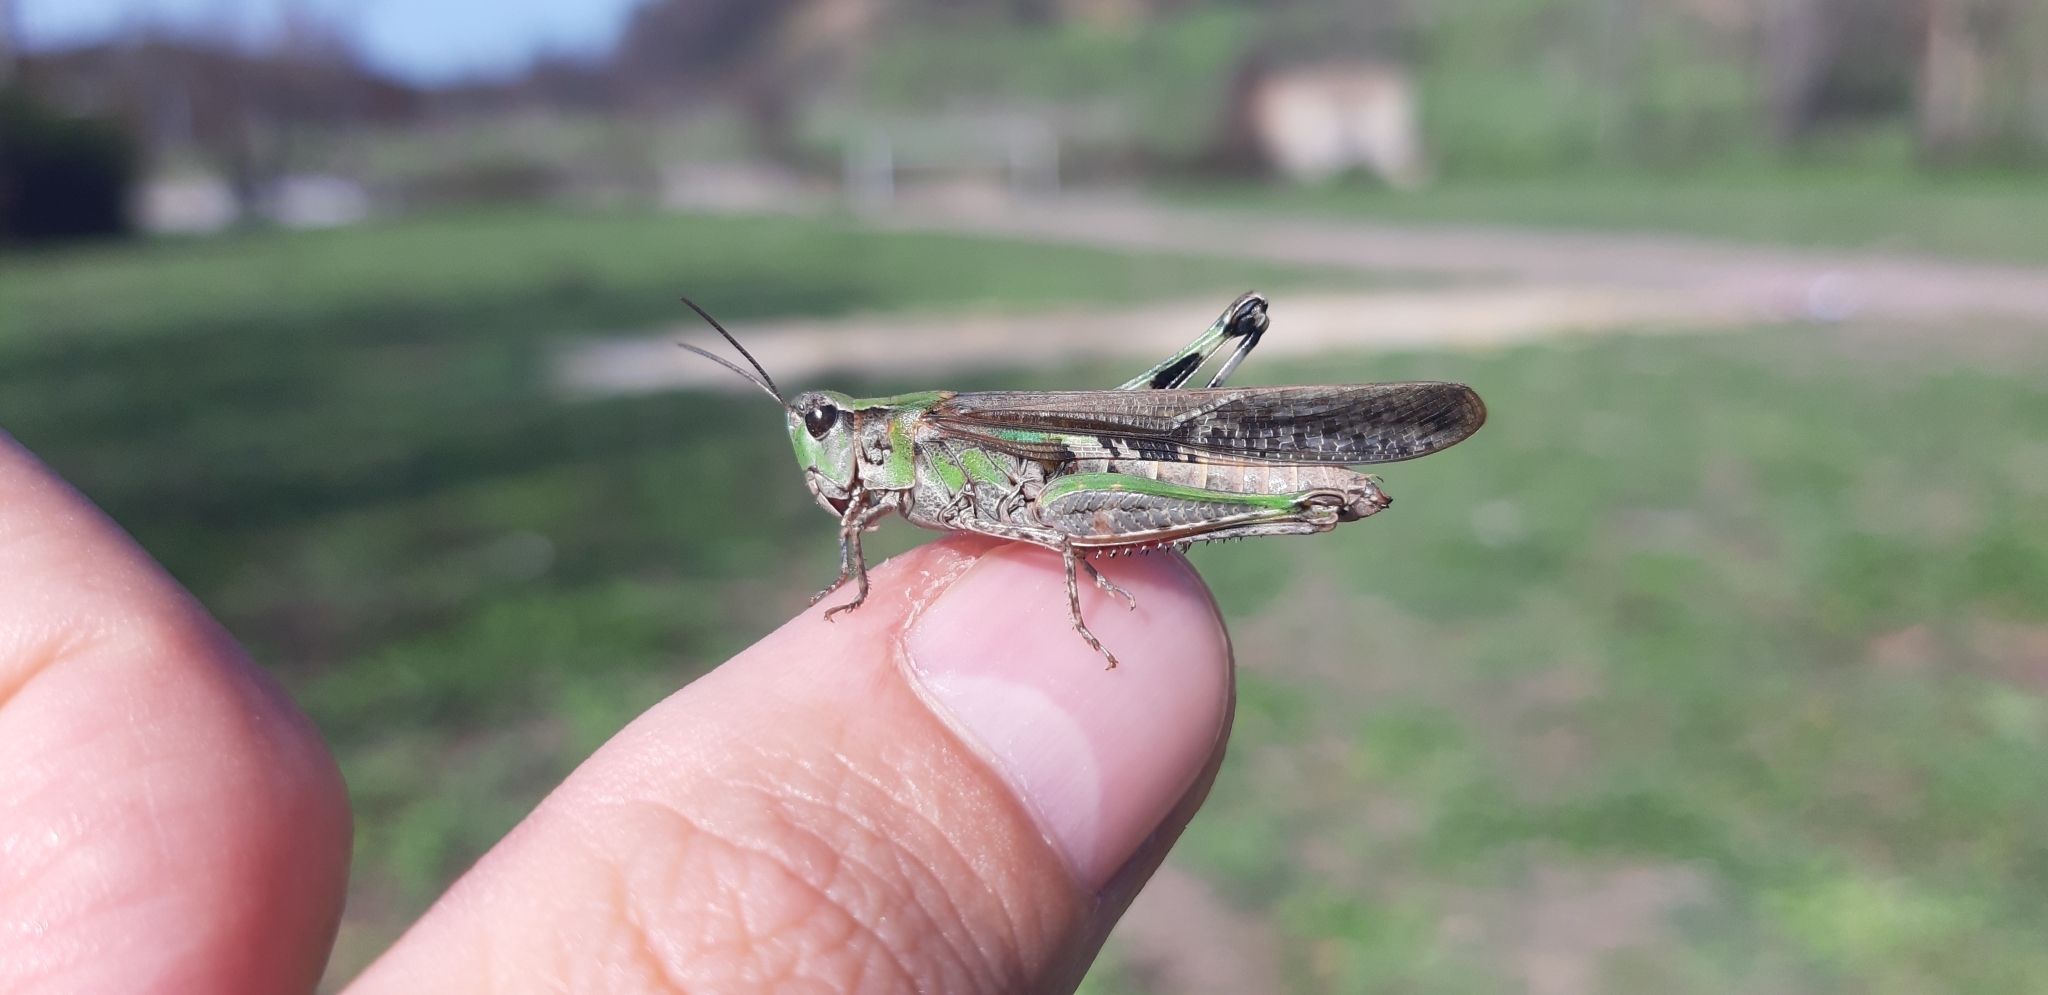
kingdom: Animalia
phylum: Arthropoda
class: Insecta
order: Orthoptera
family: Acrididae
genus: Aiolopus
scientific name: Aiolopus thalassinus
